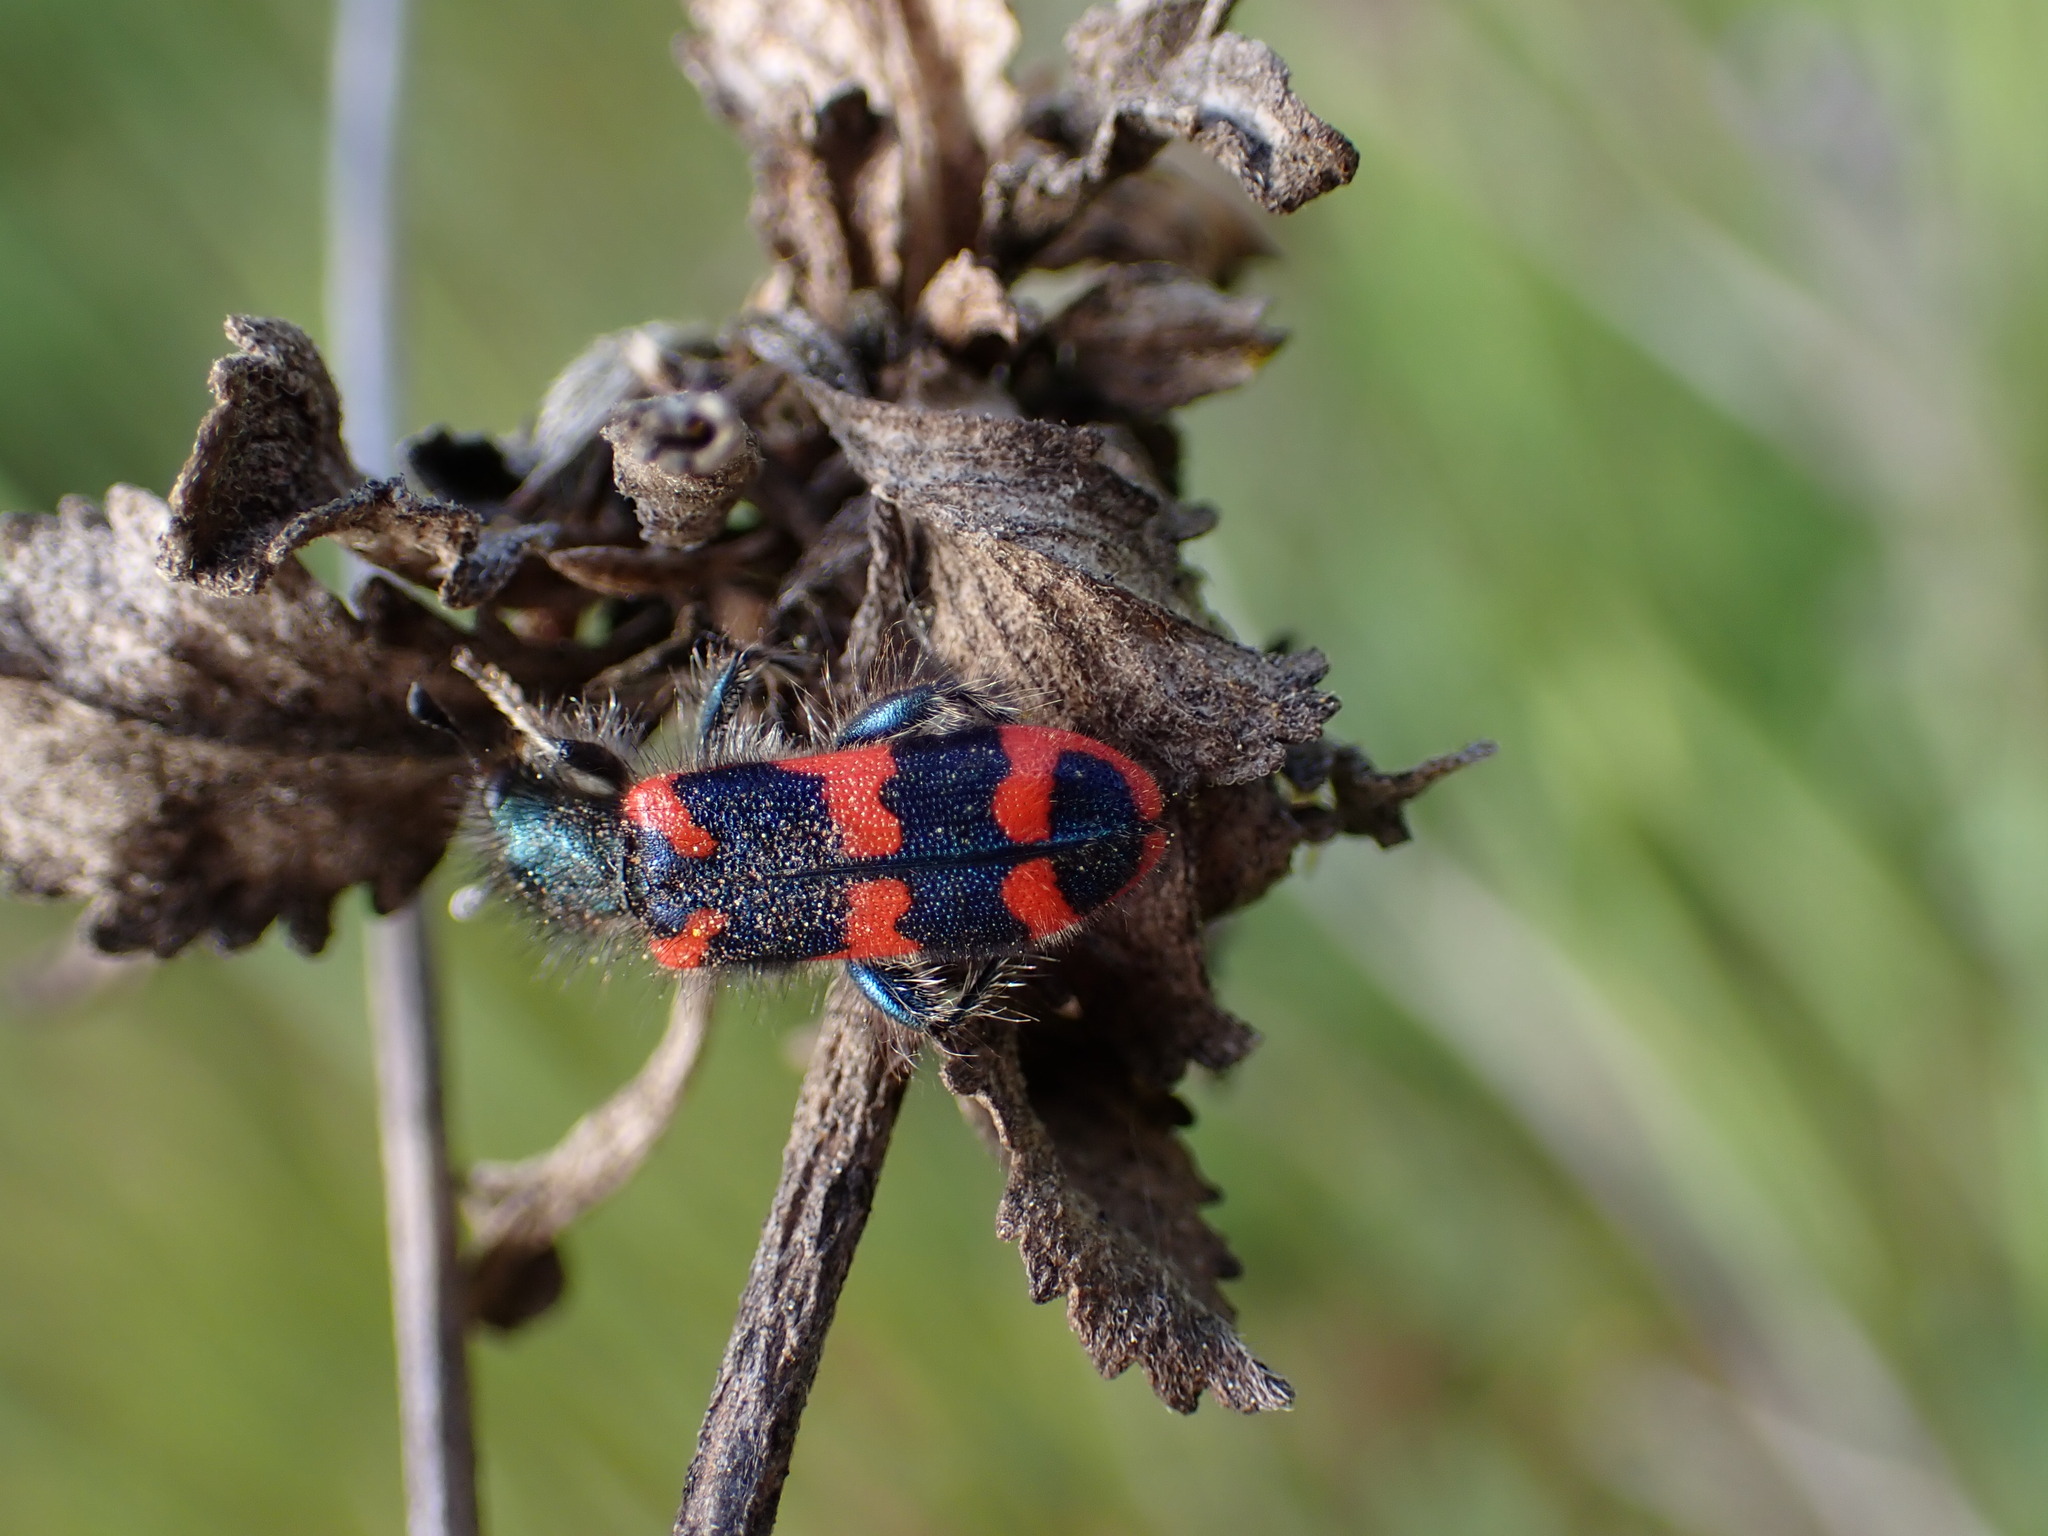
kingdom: Animalia
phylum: Arthropoda
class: Insecta
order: Coleoptera
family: Cleridae
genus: Trichodes
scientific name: Trichodes alvearius
